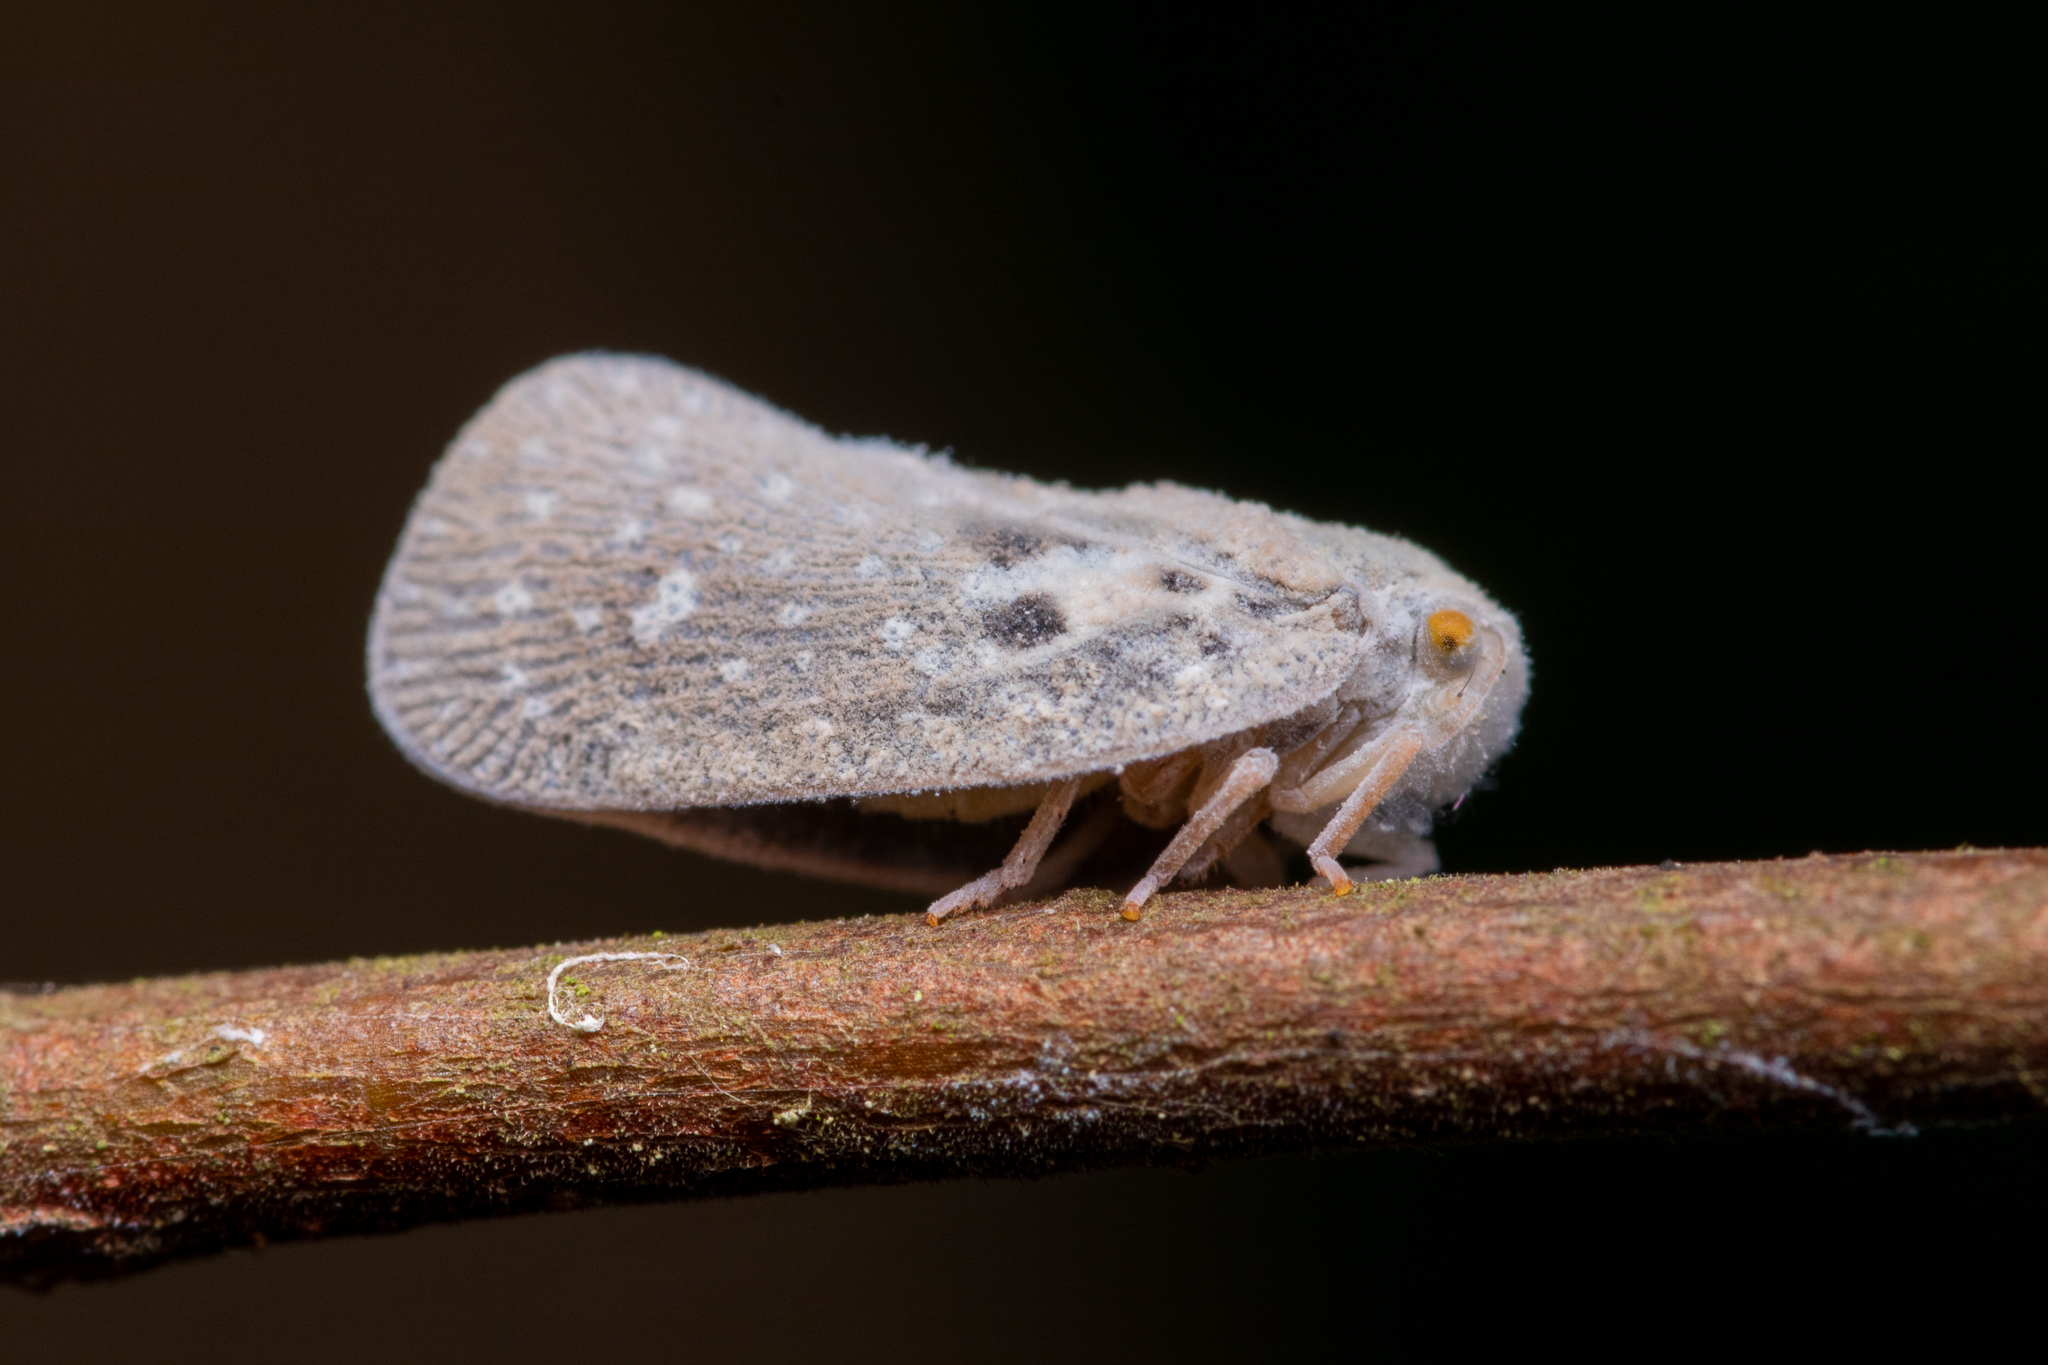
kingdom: Animalia
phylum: Arthropoda
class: Insecta
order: Hemiptera
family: Flatidae
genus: Metcalfa
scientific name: Metcalfa pruinosa
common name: Citrus flatid planthopper
